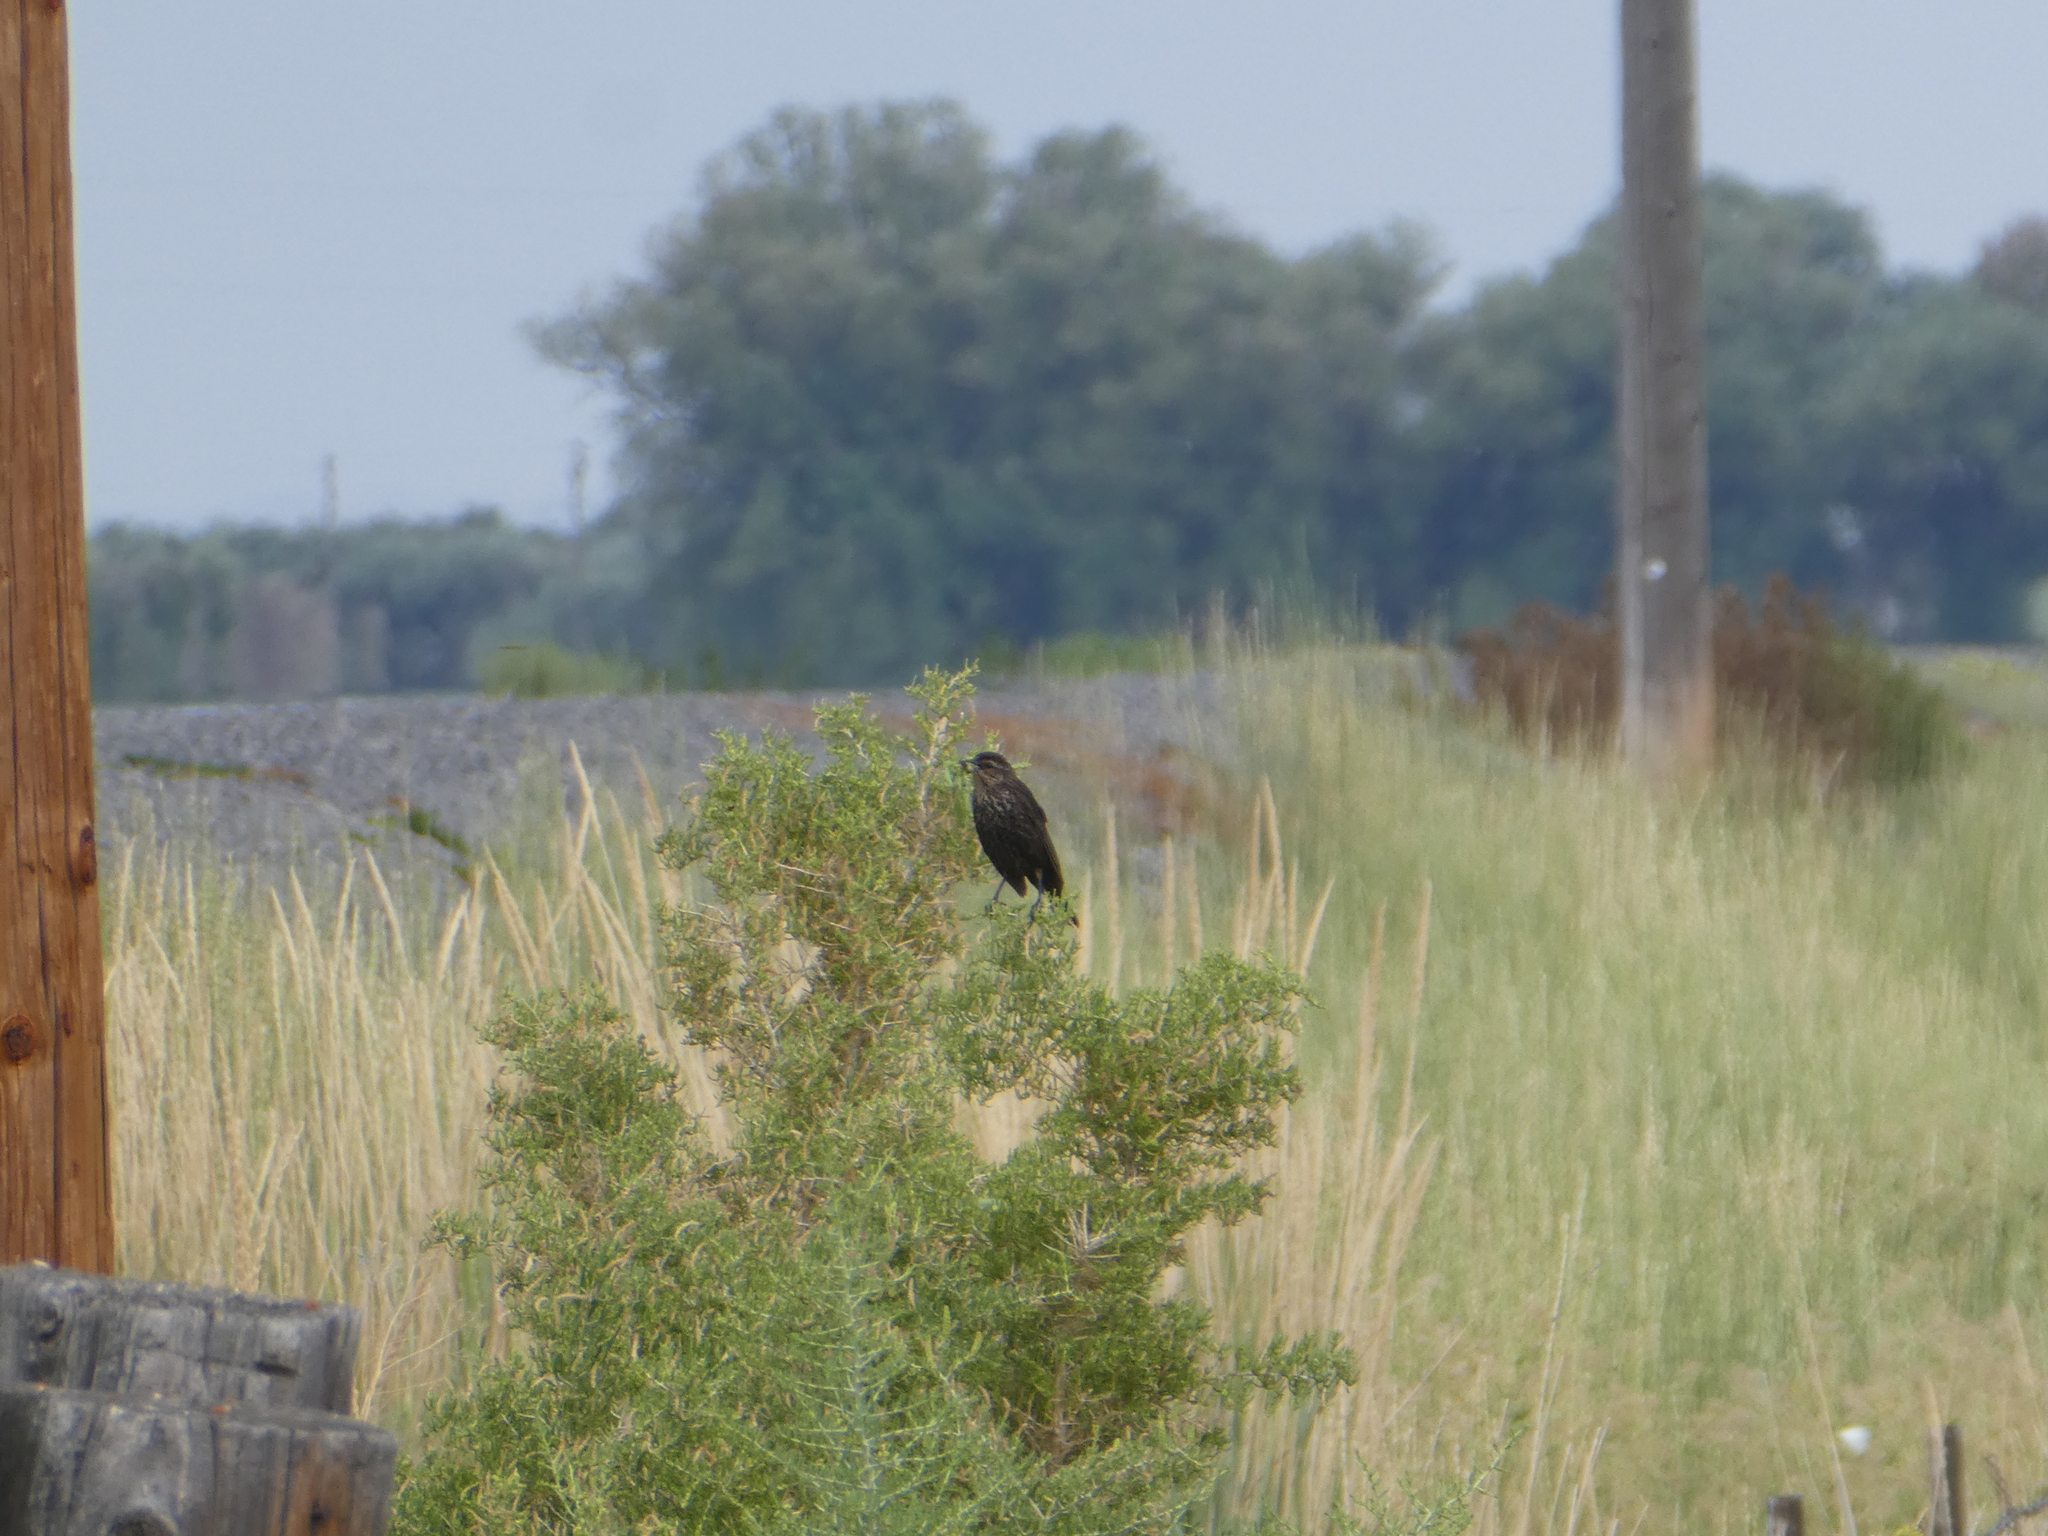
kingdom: Animalia
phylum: Chordata
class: Aves
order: Passeriformes
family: Icteridae
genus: Agelaius
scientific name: Agelaius phoeniceus
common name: Red-winged blackbird
